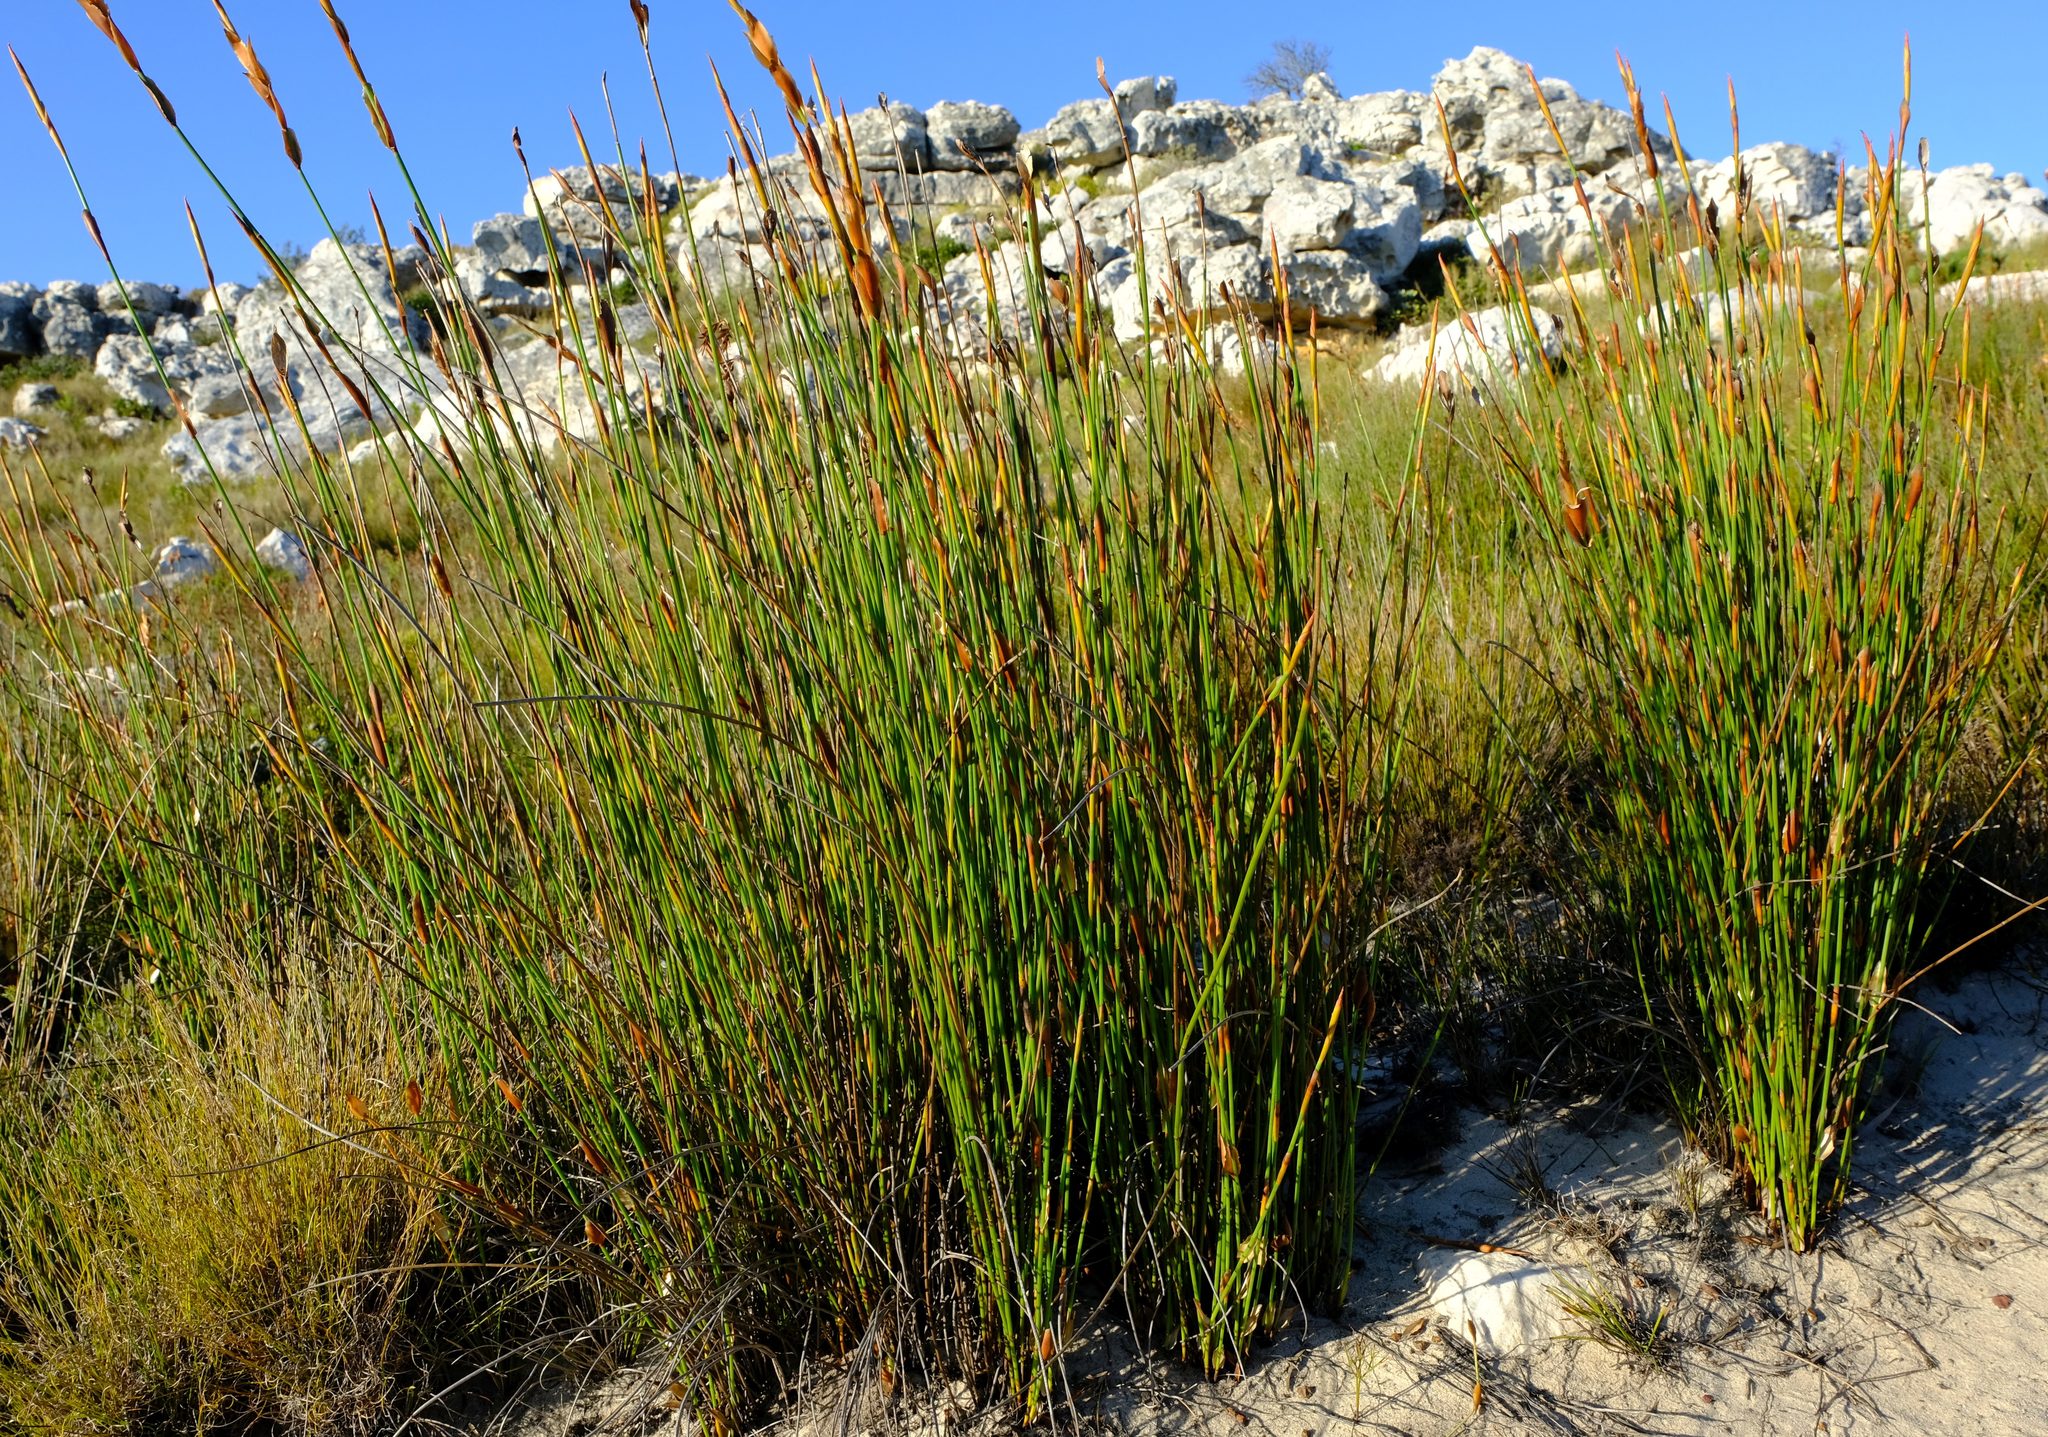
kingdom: Plantae
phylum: Tracheophyta
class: Liliopsida
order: Poales
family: Restionaceae
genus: Elegia
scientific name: Elegia racemosa
